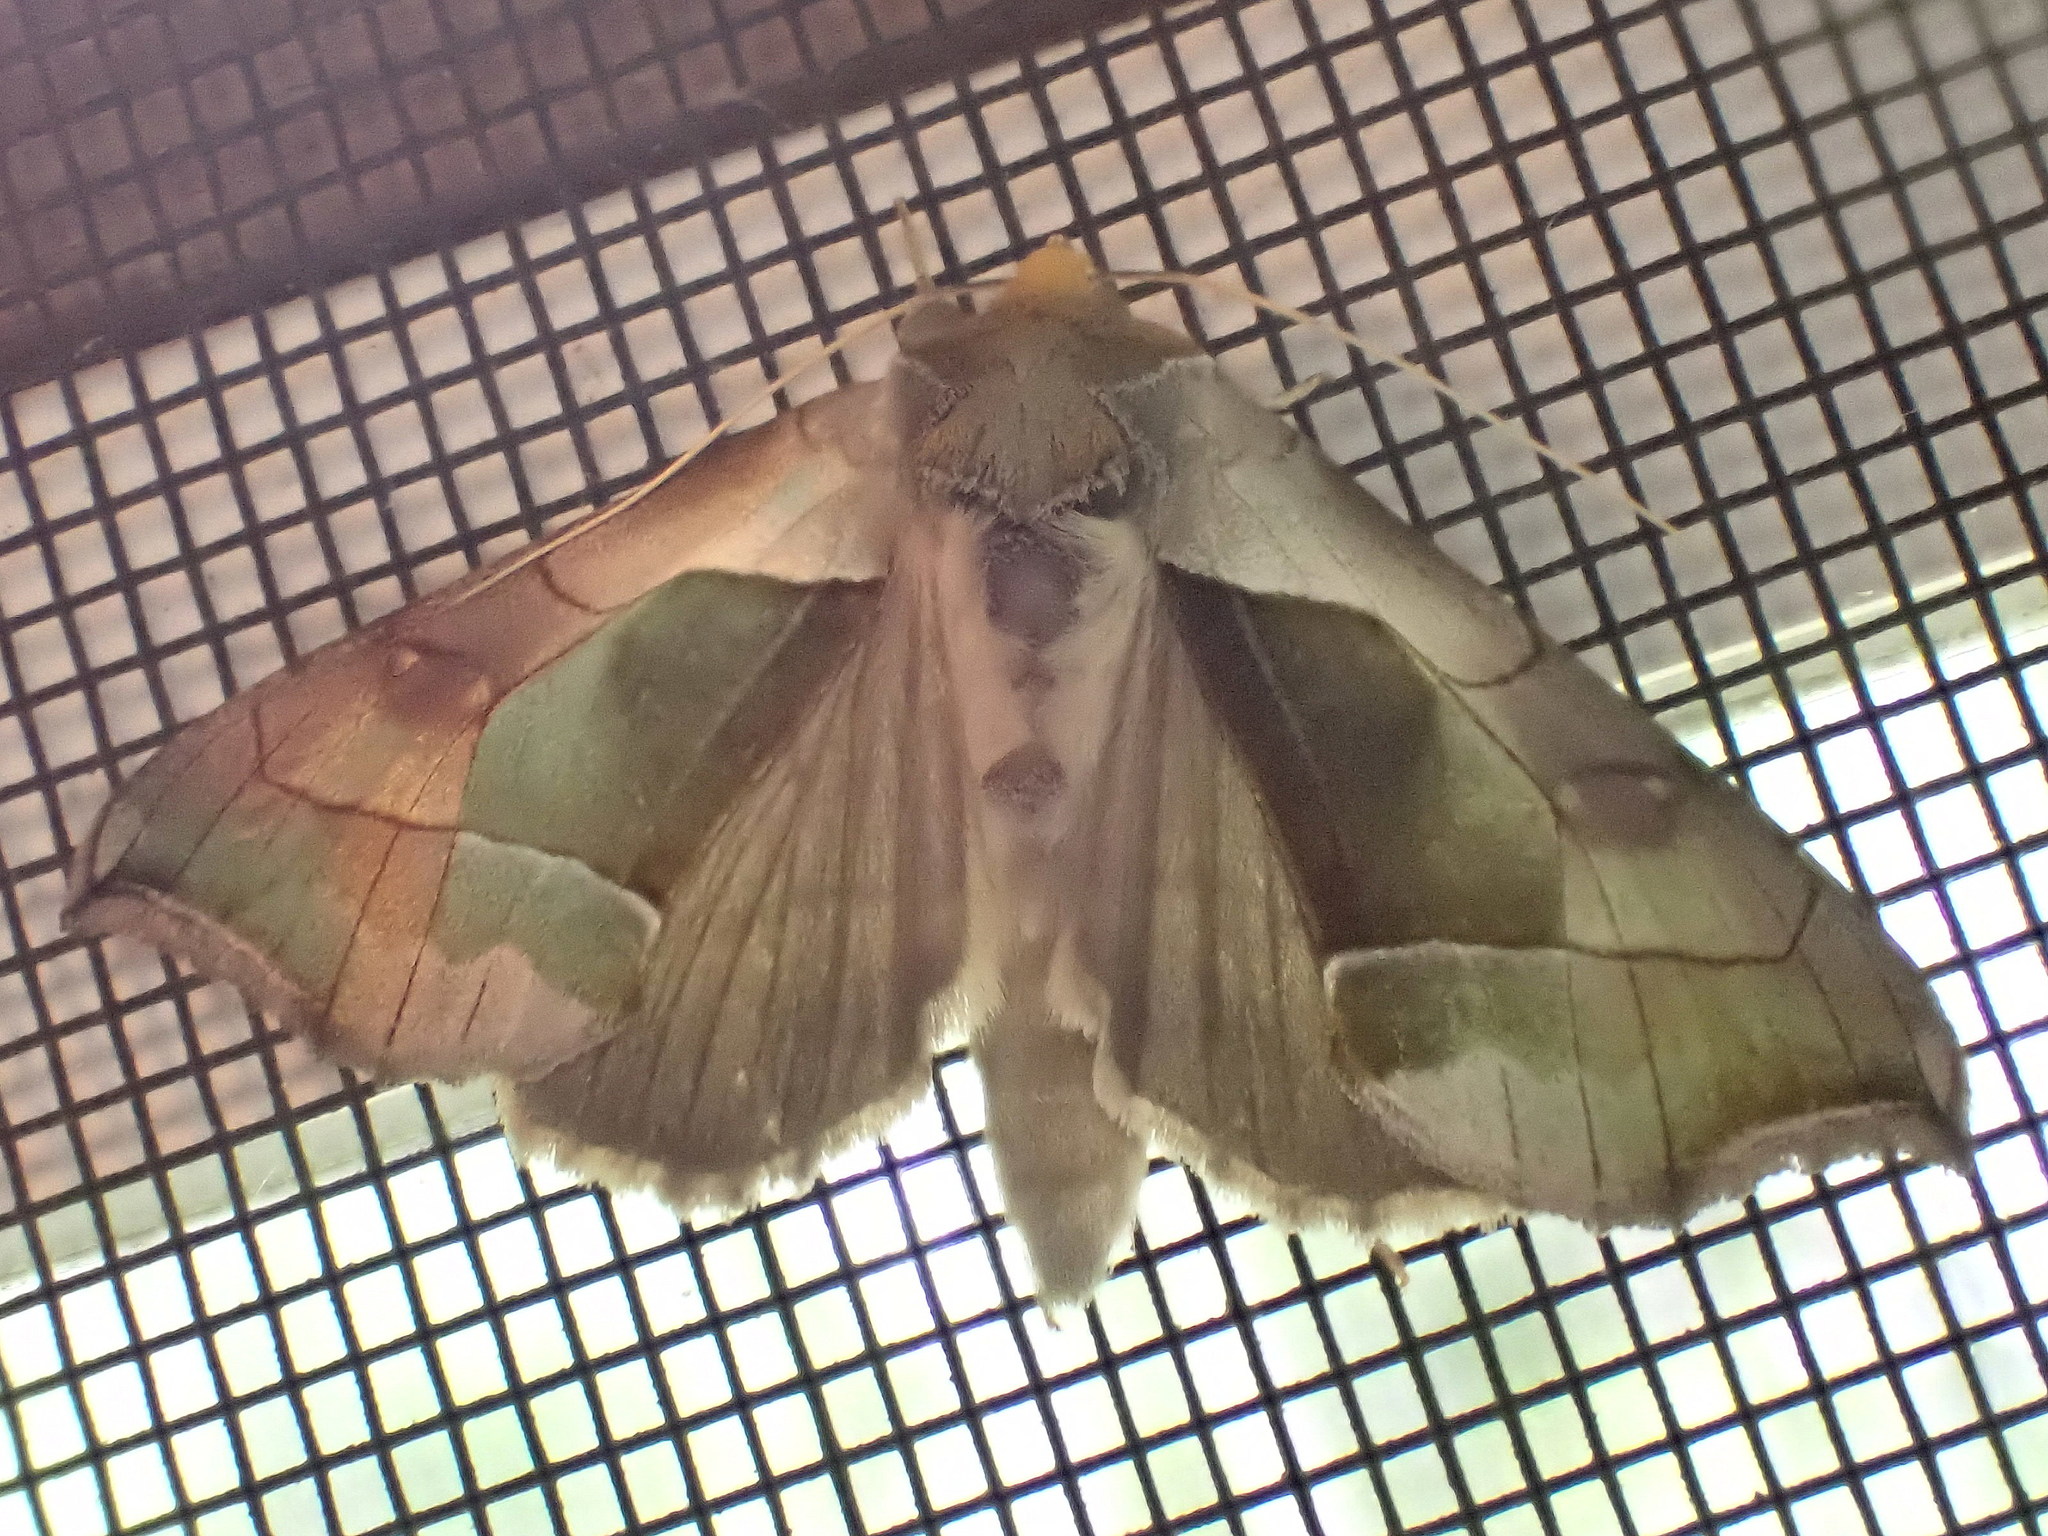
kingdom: Animalia
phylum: Arthropoda
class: Insecta
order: Lepidoptera
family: Noctuidae
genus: Diachrysia
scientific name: Diachrysia balluca
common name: Green-patched looper moth
